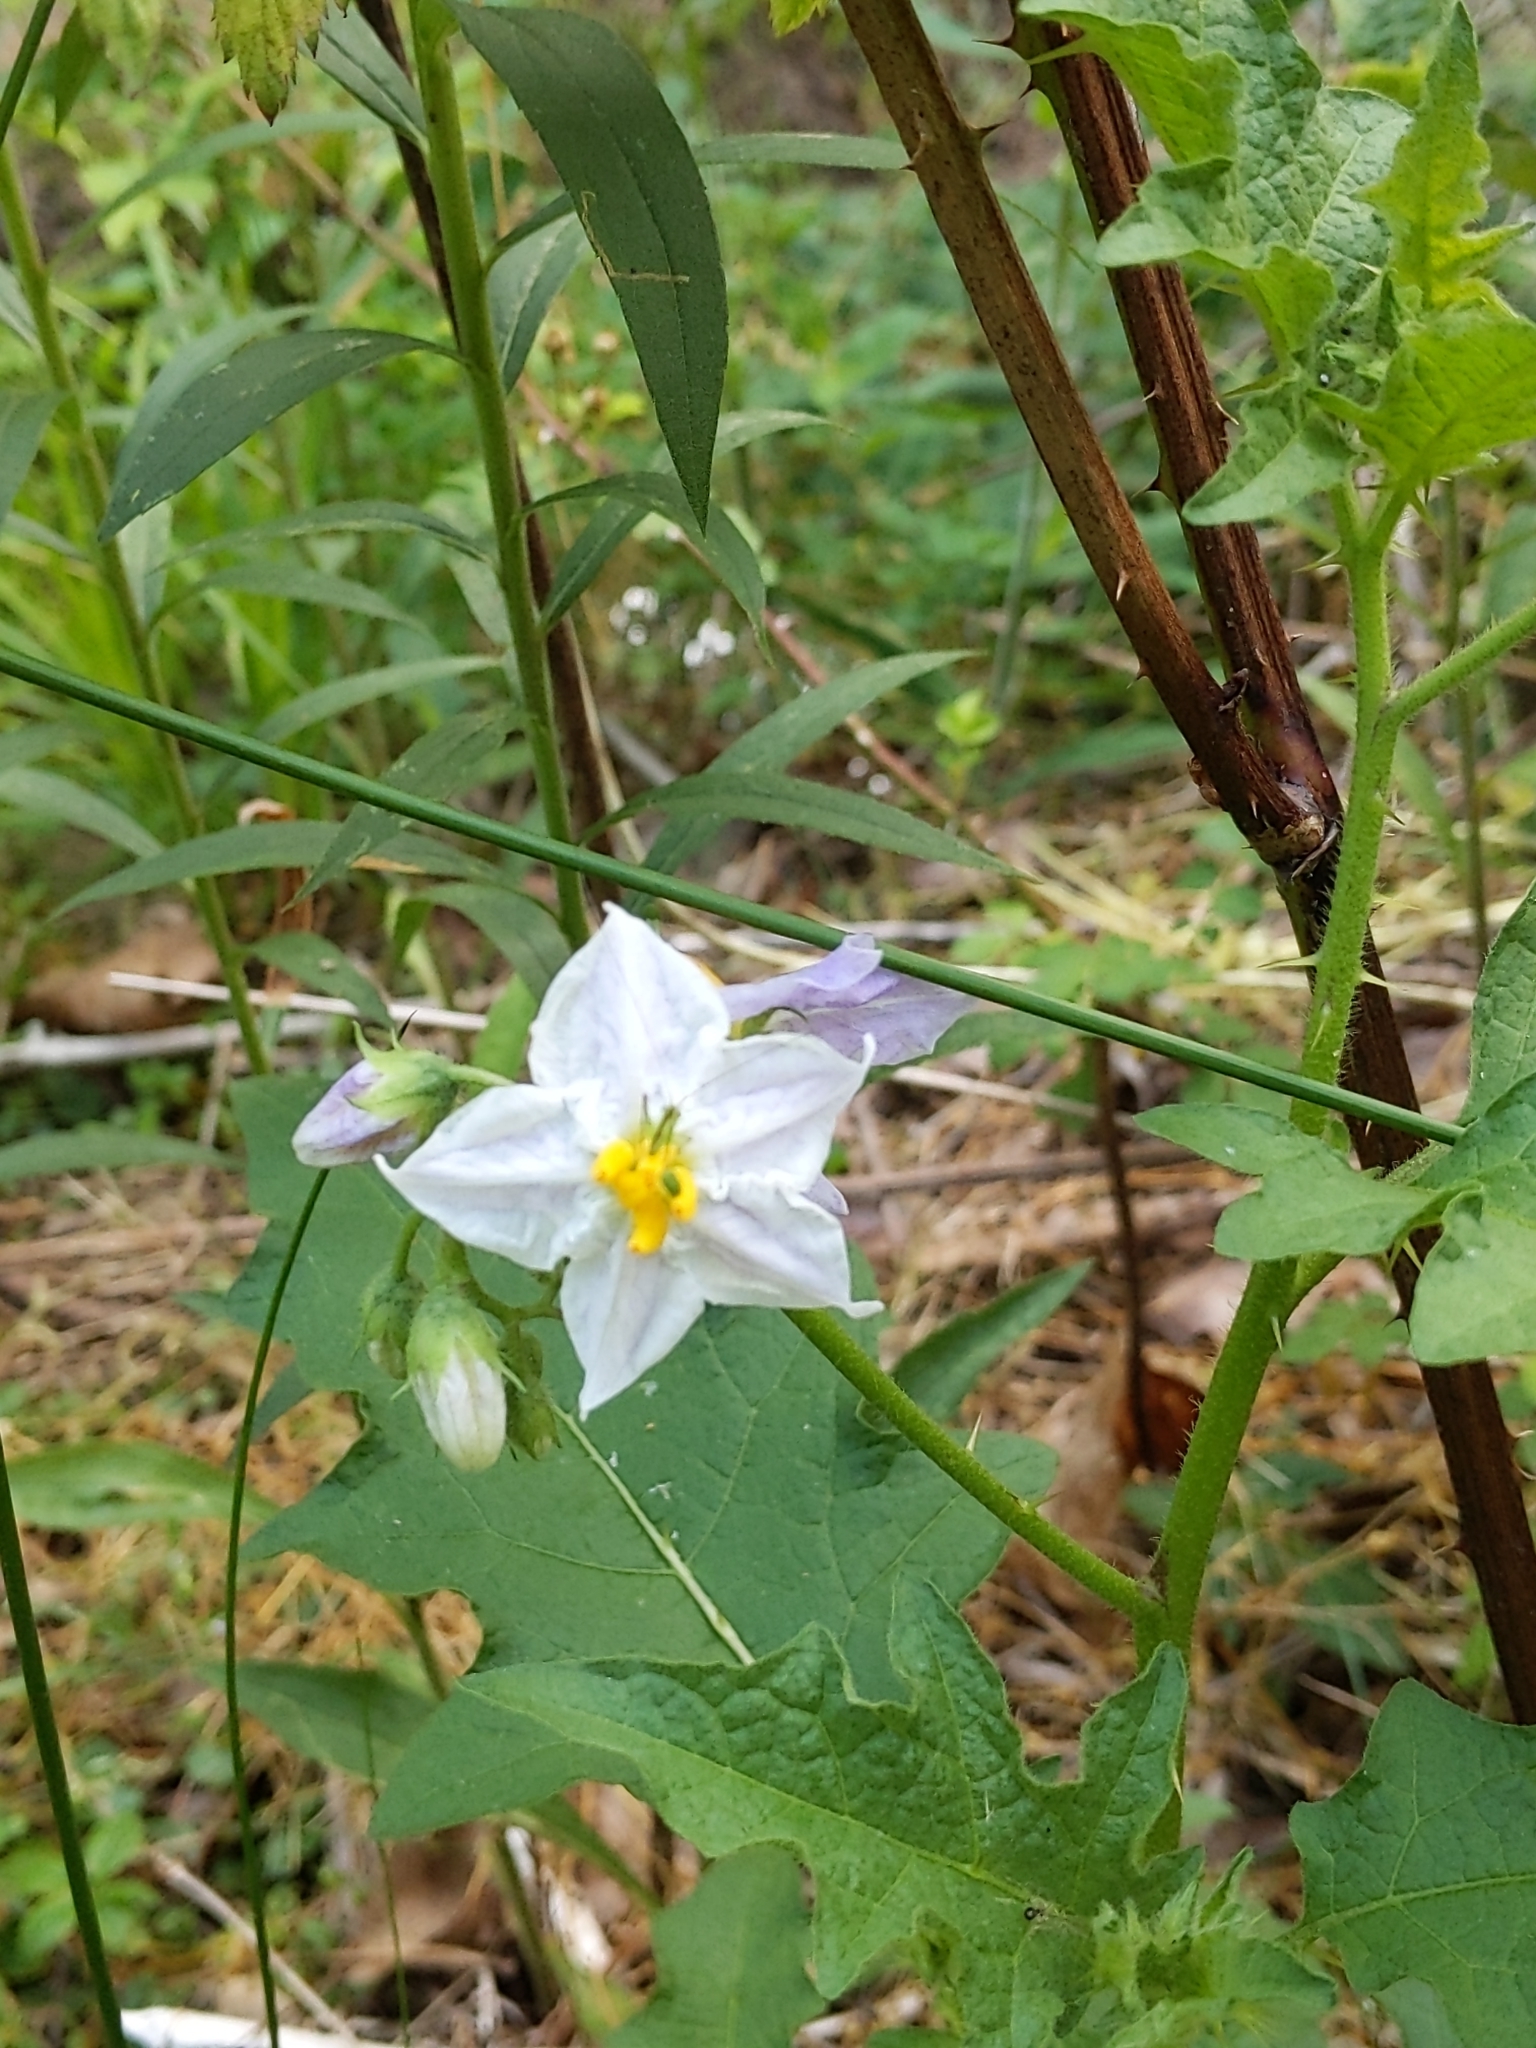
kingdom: Plantae
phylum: Tracheophyta
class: Magnoliopsida
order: Solanales
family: Solanaceae
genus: Solanum
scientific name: Solanum carolinense
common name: Horse-nettle
